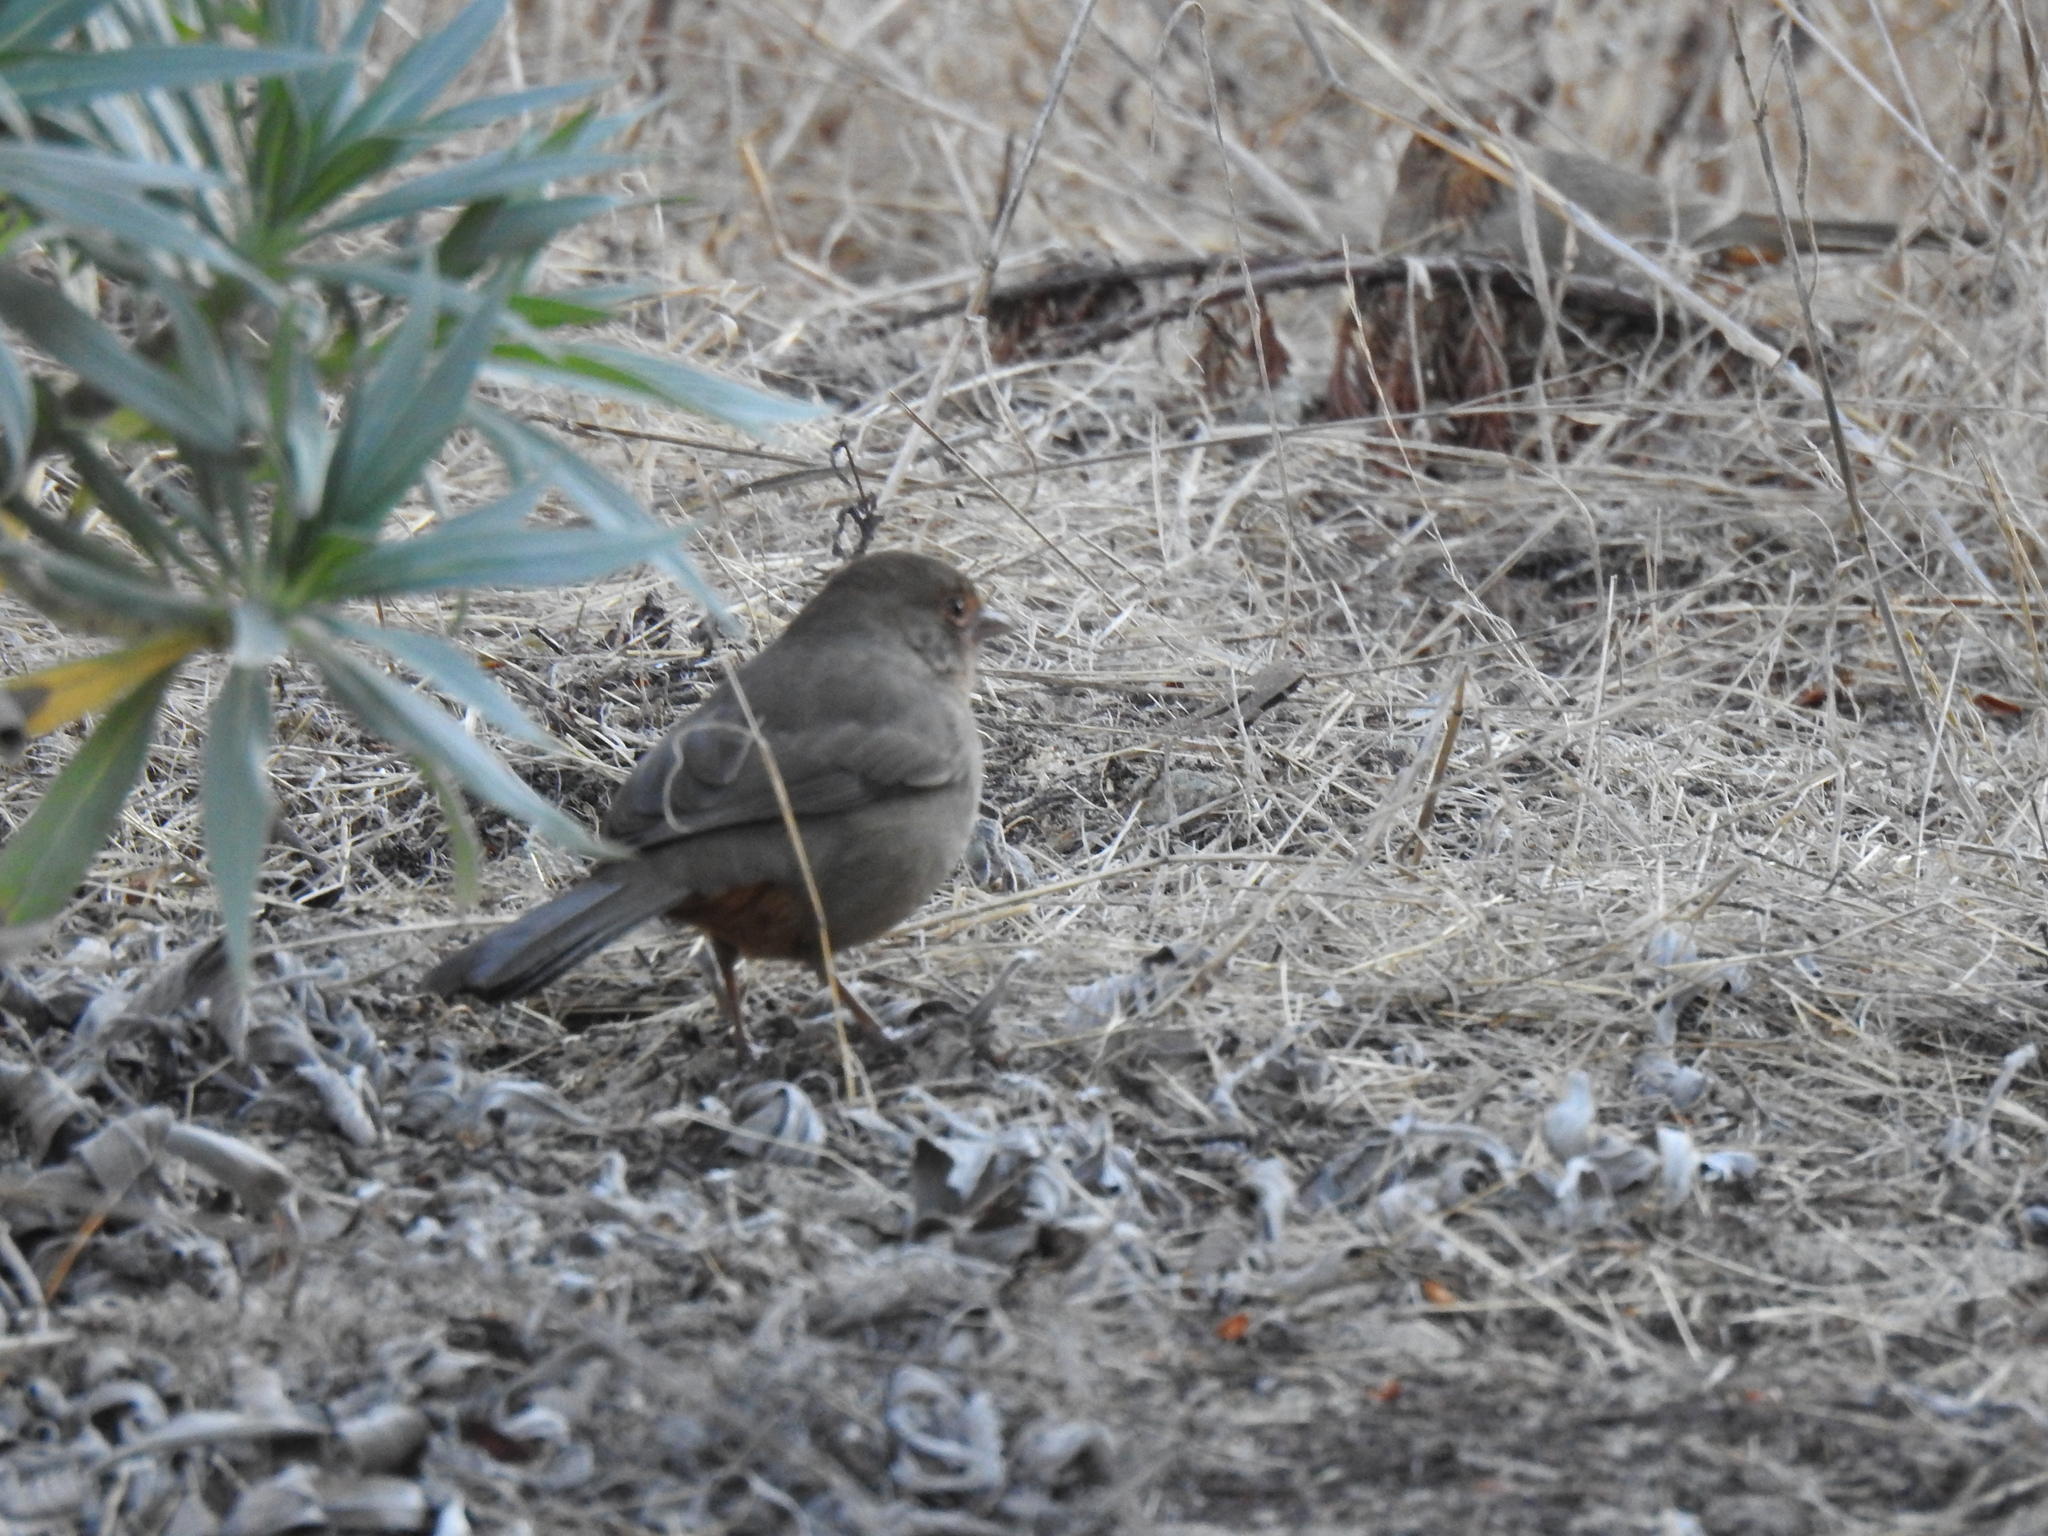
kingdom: Animalia
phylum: Chordata
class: Aves
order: Passeriformes
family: Passerellidae
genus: Melozone
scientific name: Melozone crissalis
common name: California towhee
